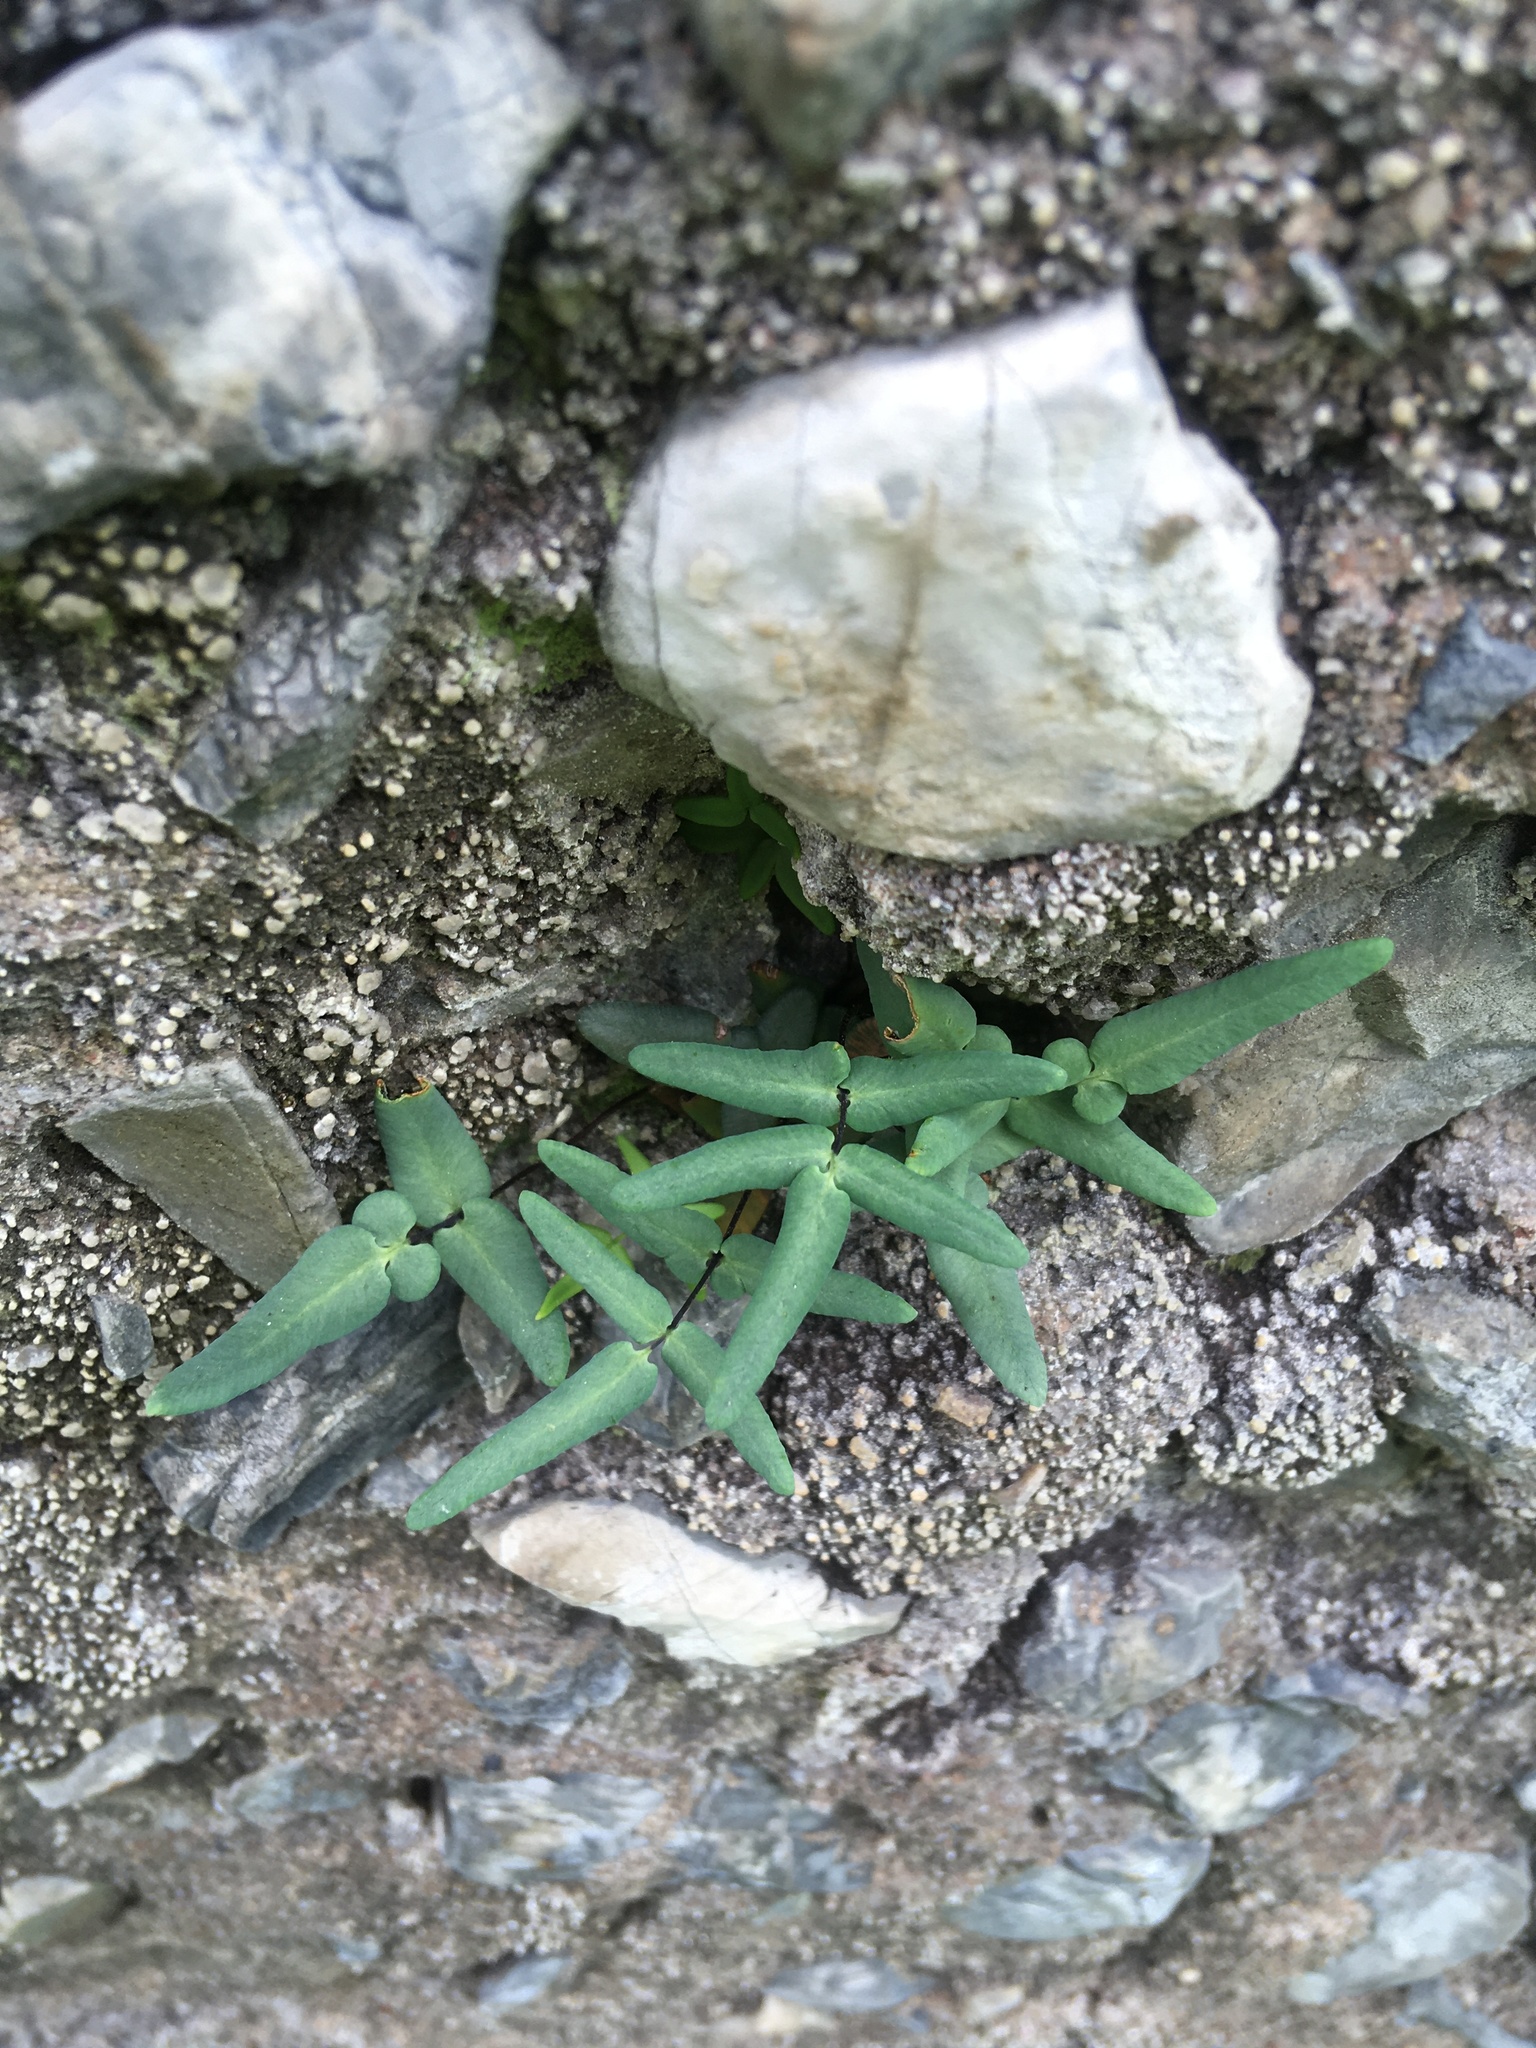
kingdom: Plantae
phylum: Tracheophyta
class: Polypodiopsida
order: Polypodiales
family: Pteridaceae
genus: Pellaea
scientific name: Pellaea glabella
